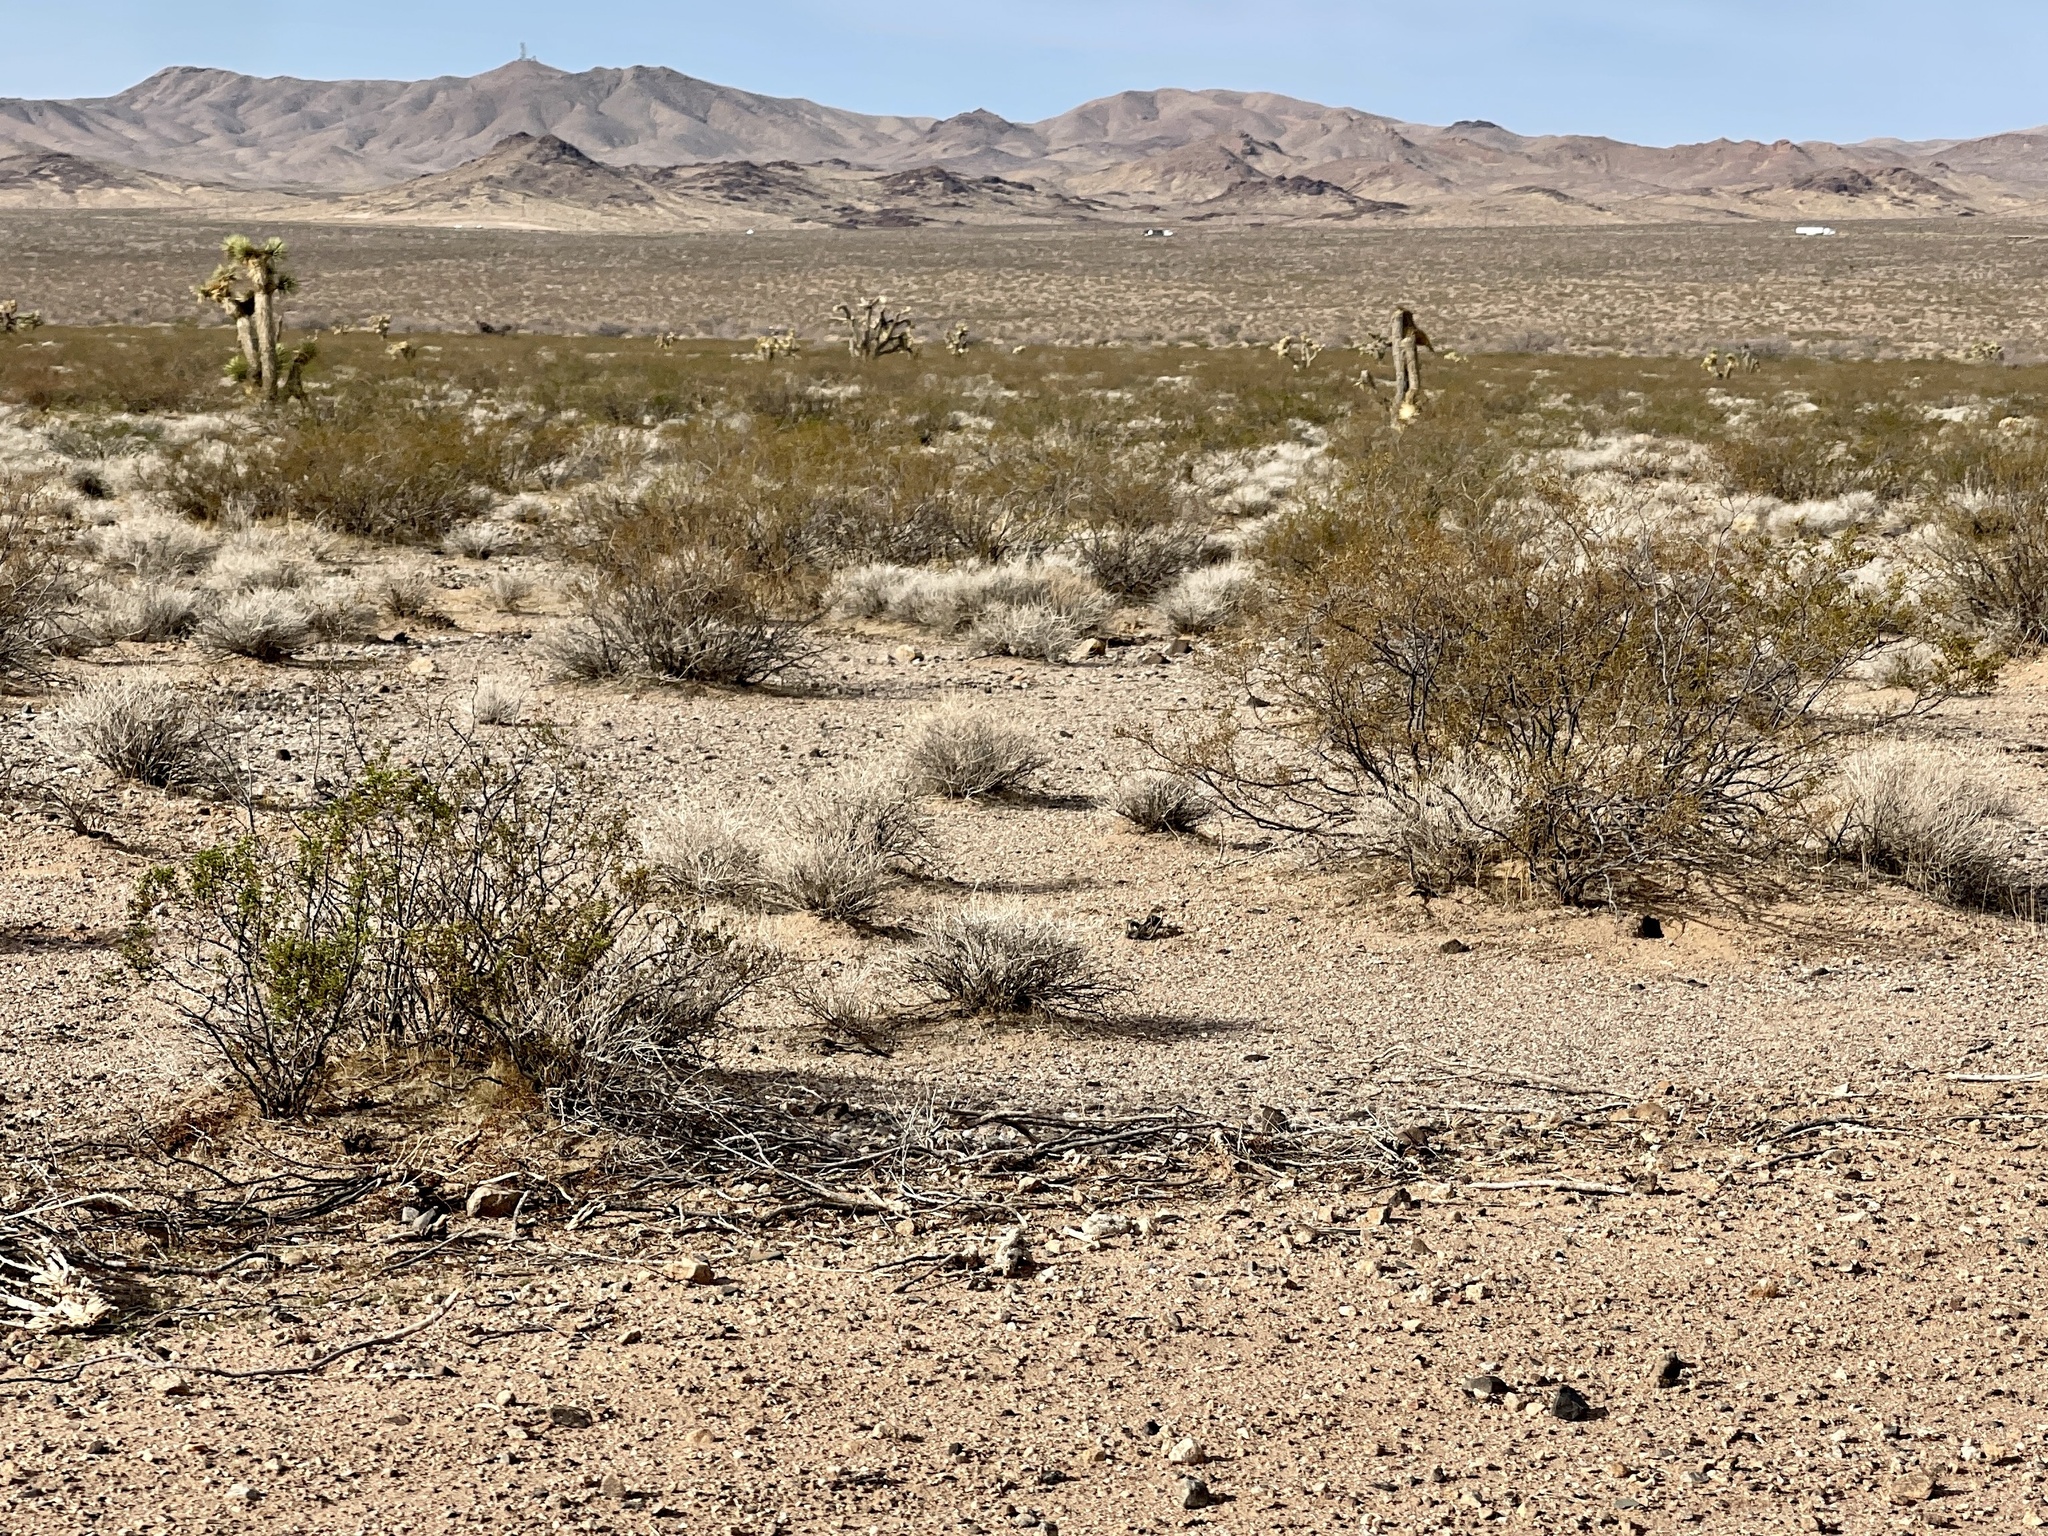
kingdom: Plantae
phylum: Tracheophyta
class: Magnoliopsida
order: Zygophyllales
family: Zygophyllaceae
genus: Larrea
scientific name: Larrea tridentata
